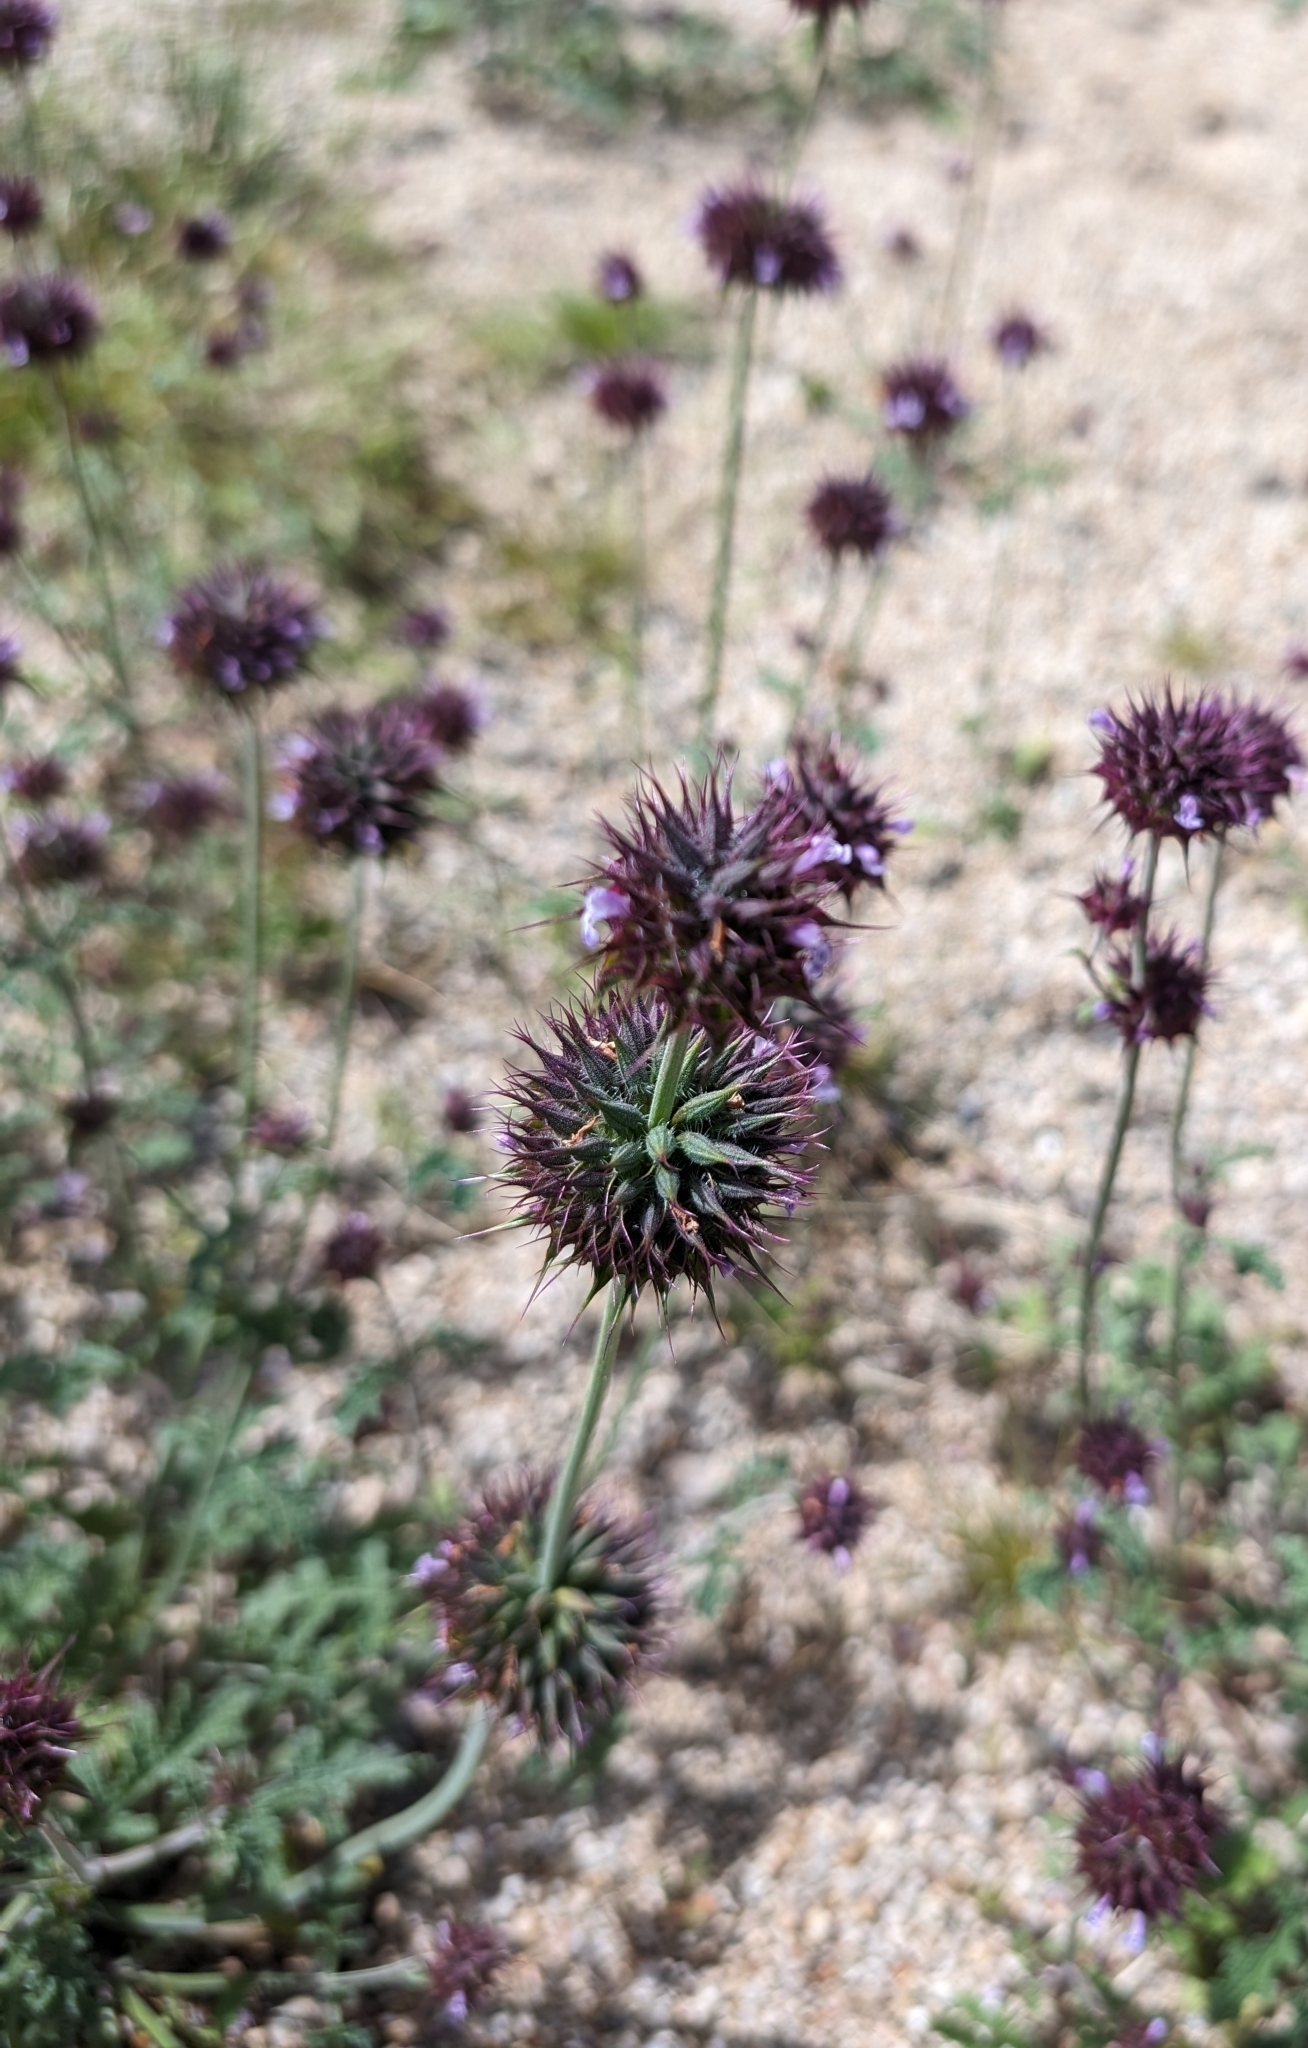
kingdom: Plantae
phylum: Tracheophyta
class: Magnoliopsida
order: Lamiales
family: Lamiaceae
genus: Salvia
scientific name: Salvia columbariae
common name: Chia
